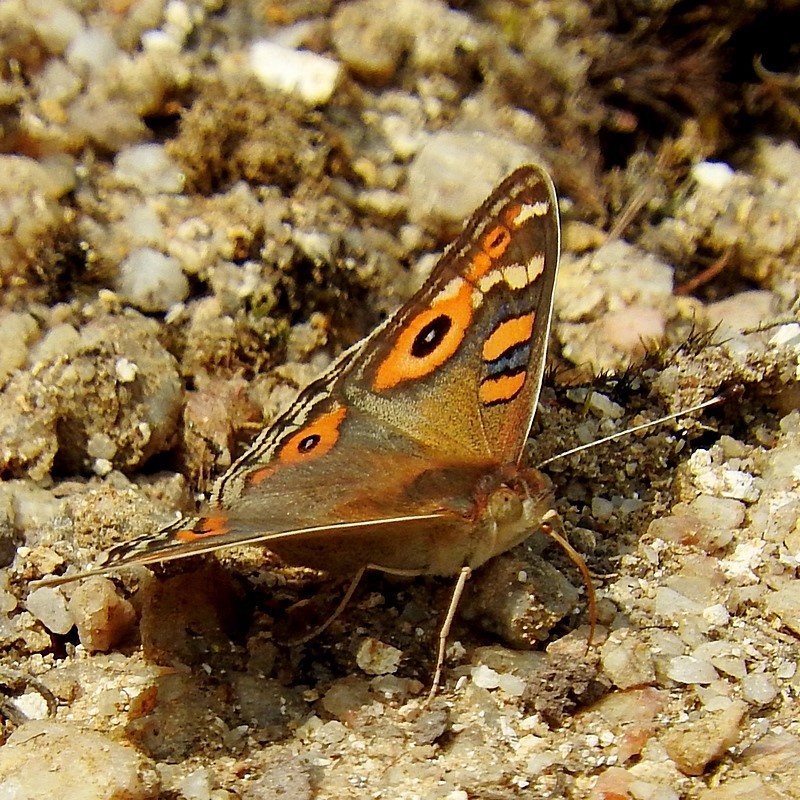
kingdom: Animalia
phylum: Arthropoda
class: Insecta
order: Lepidoptera
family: Nymphalidae
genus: Junonia
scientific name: Junonia villida
